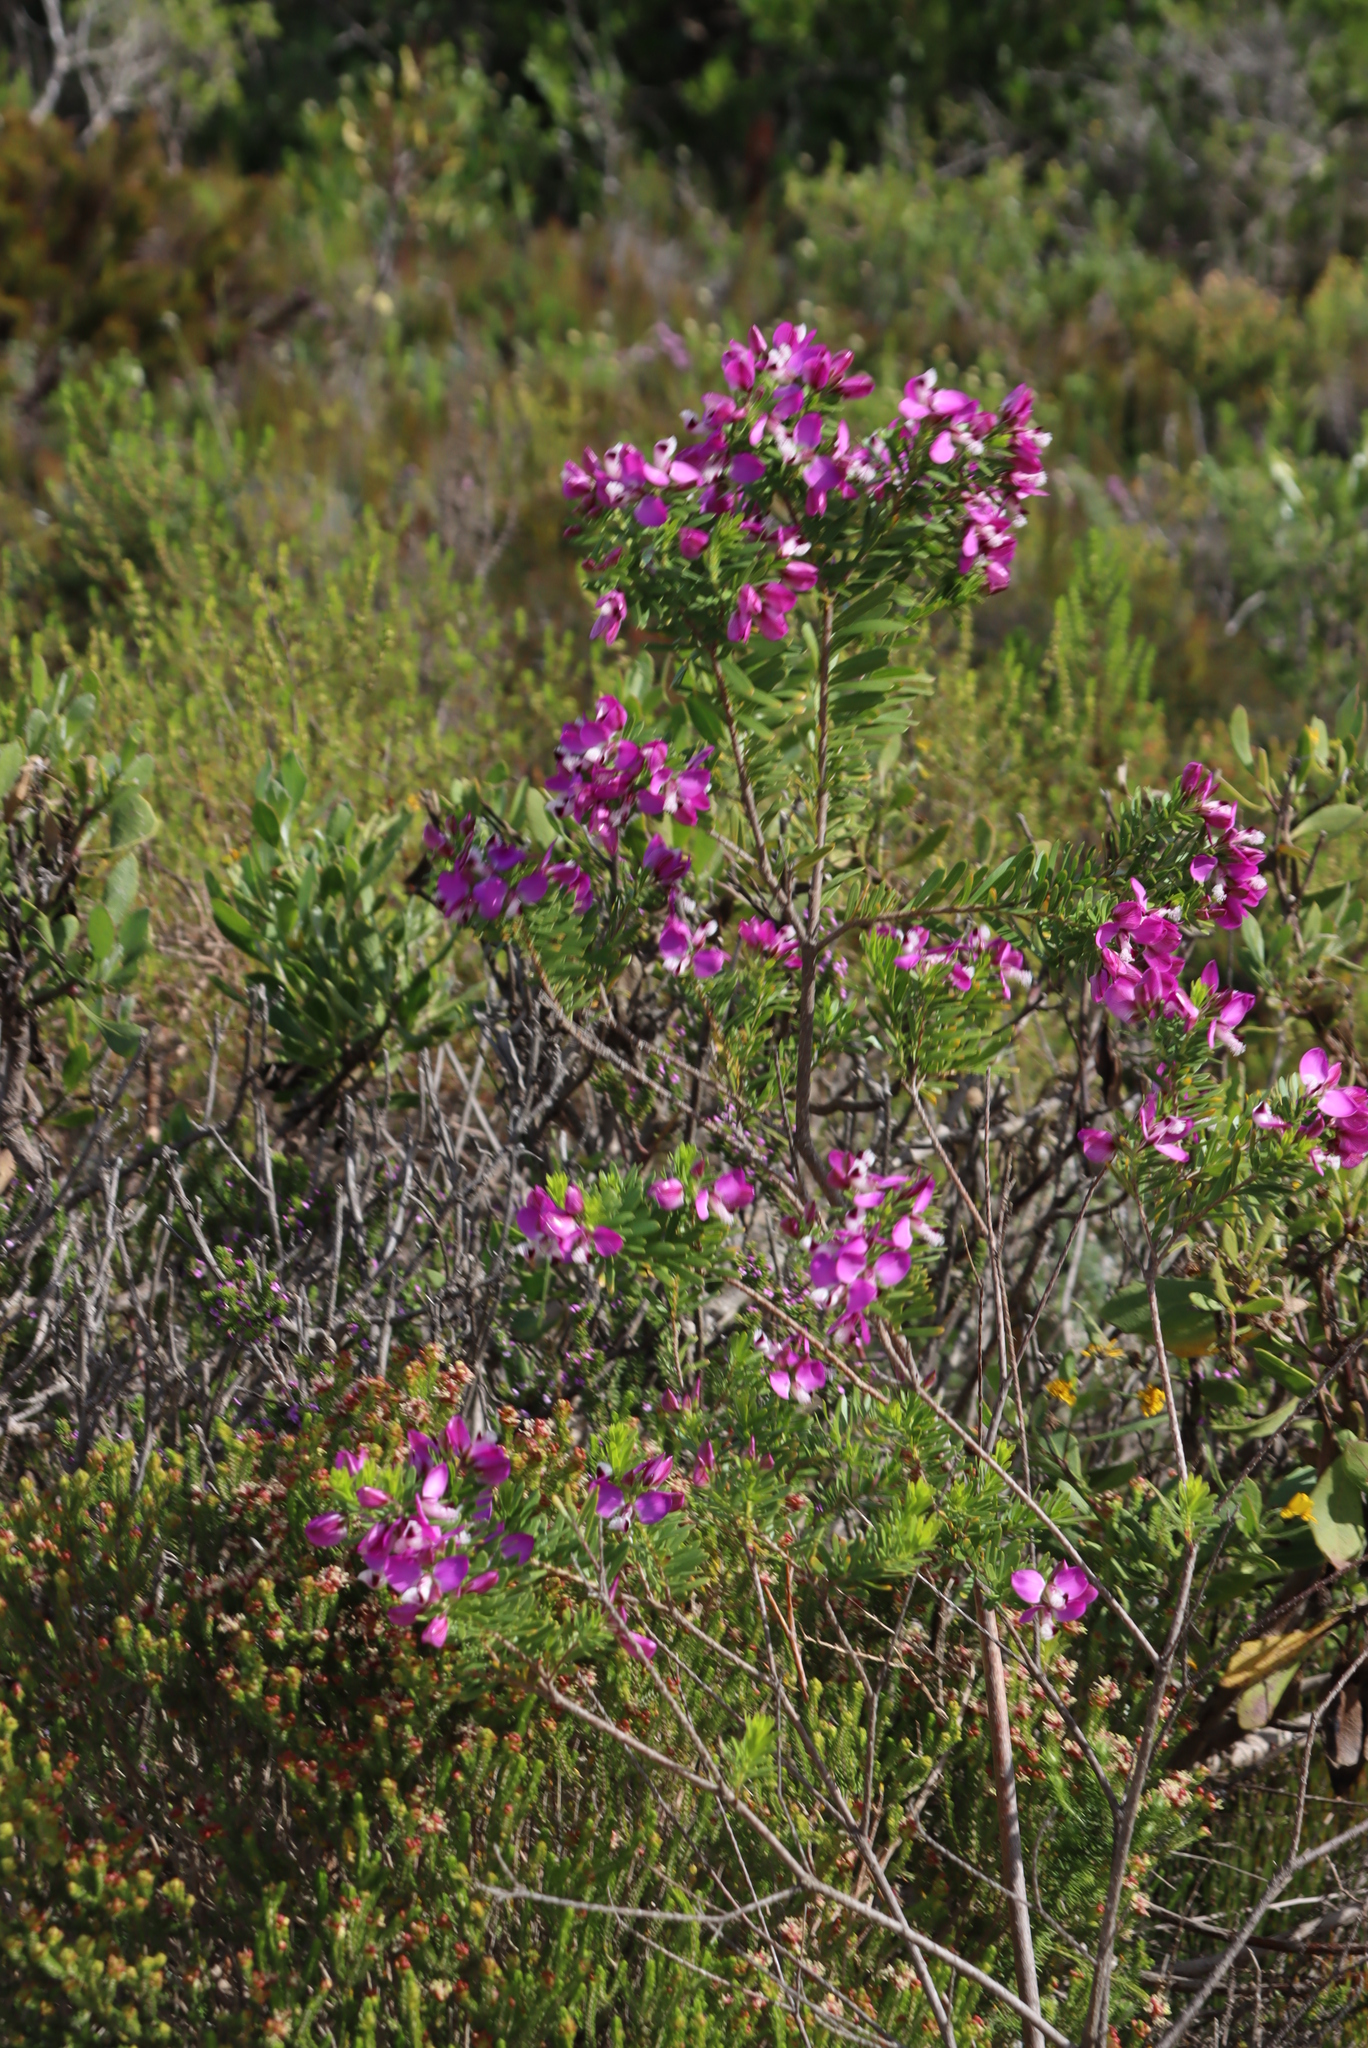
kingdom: Plantae
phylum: Tracheophyta
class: Magnoliopsida
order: Fabales
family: Polygalaceae
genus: Polygala
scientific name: Polygala myrtifolia
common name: Myrtle-leaf milkwort
